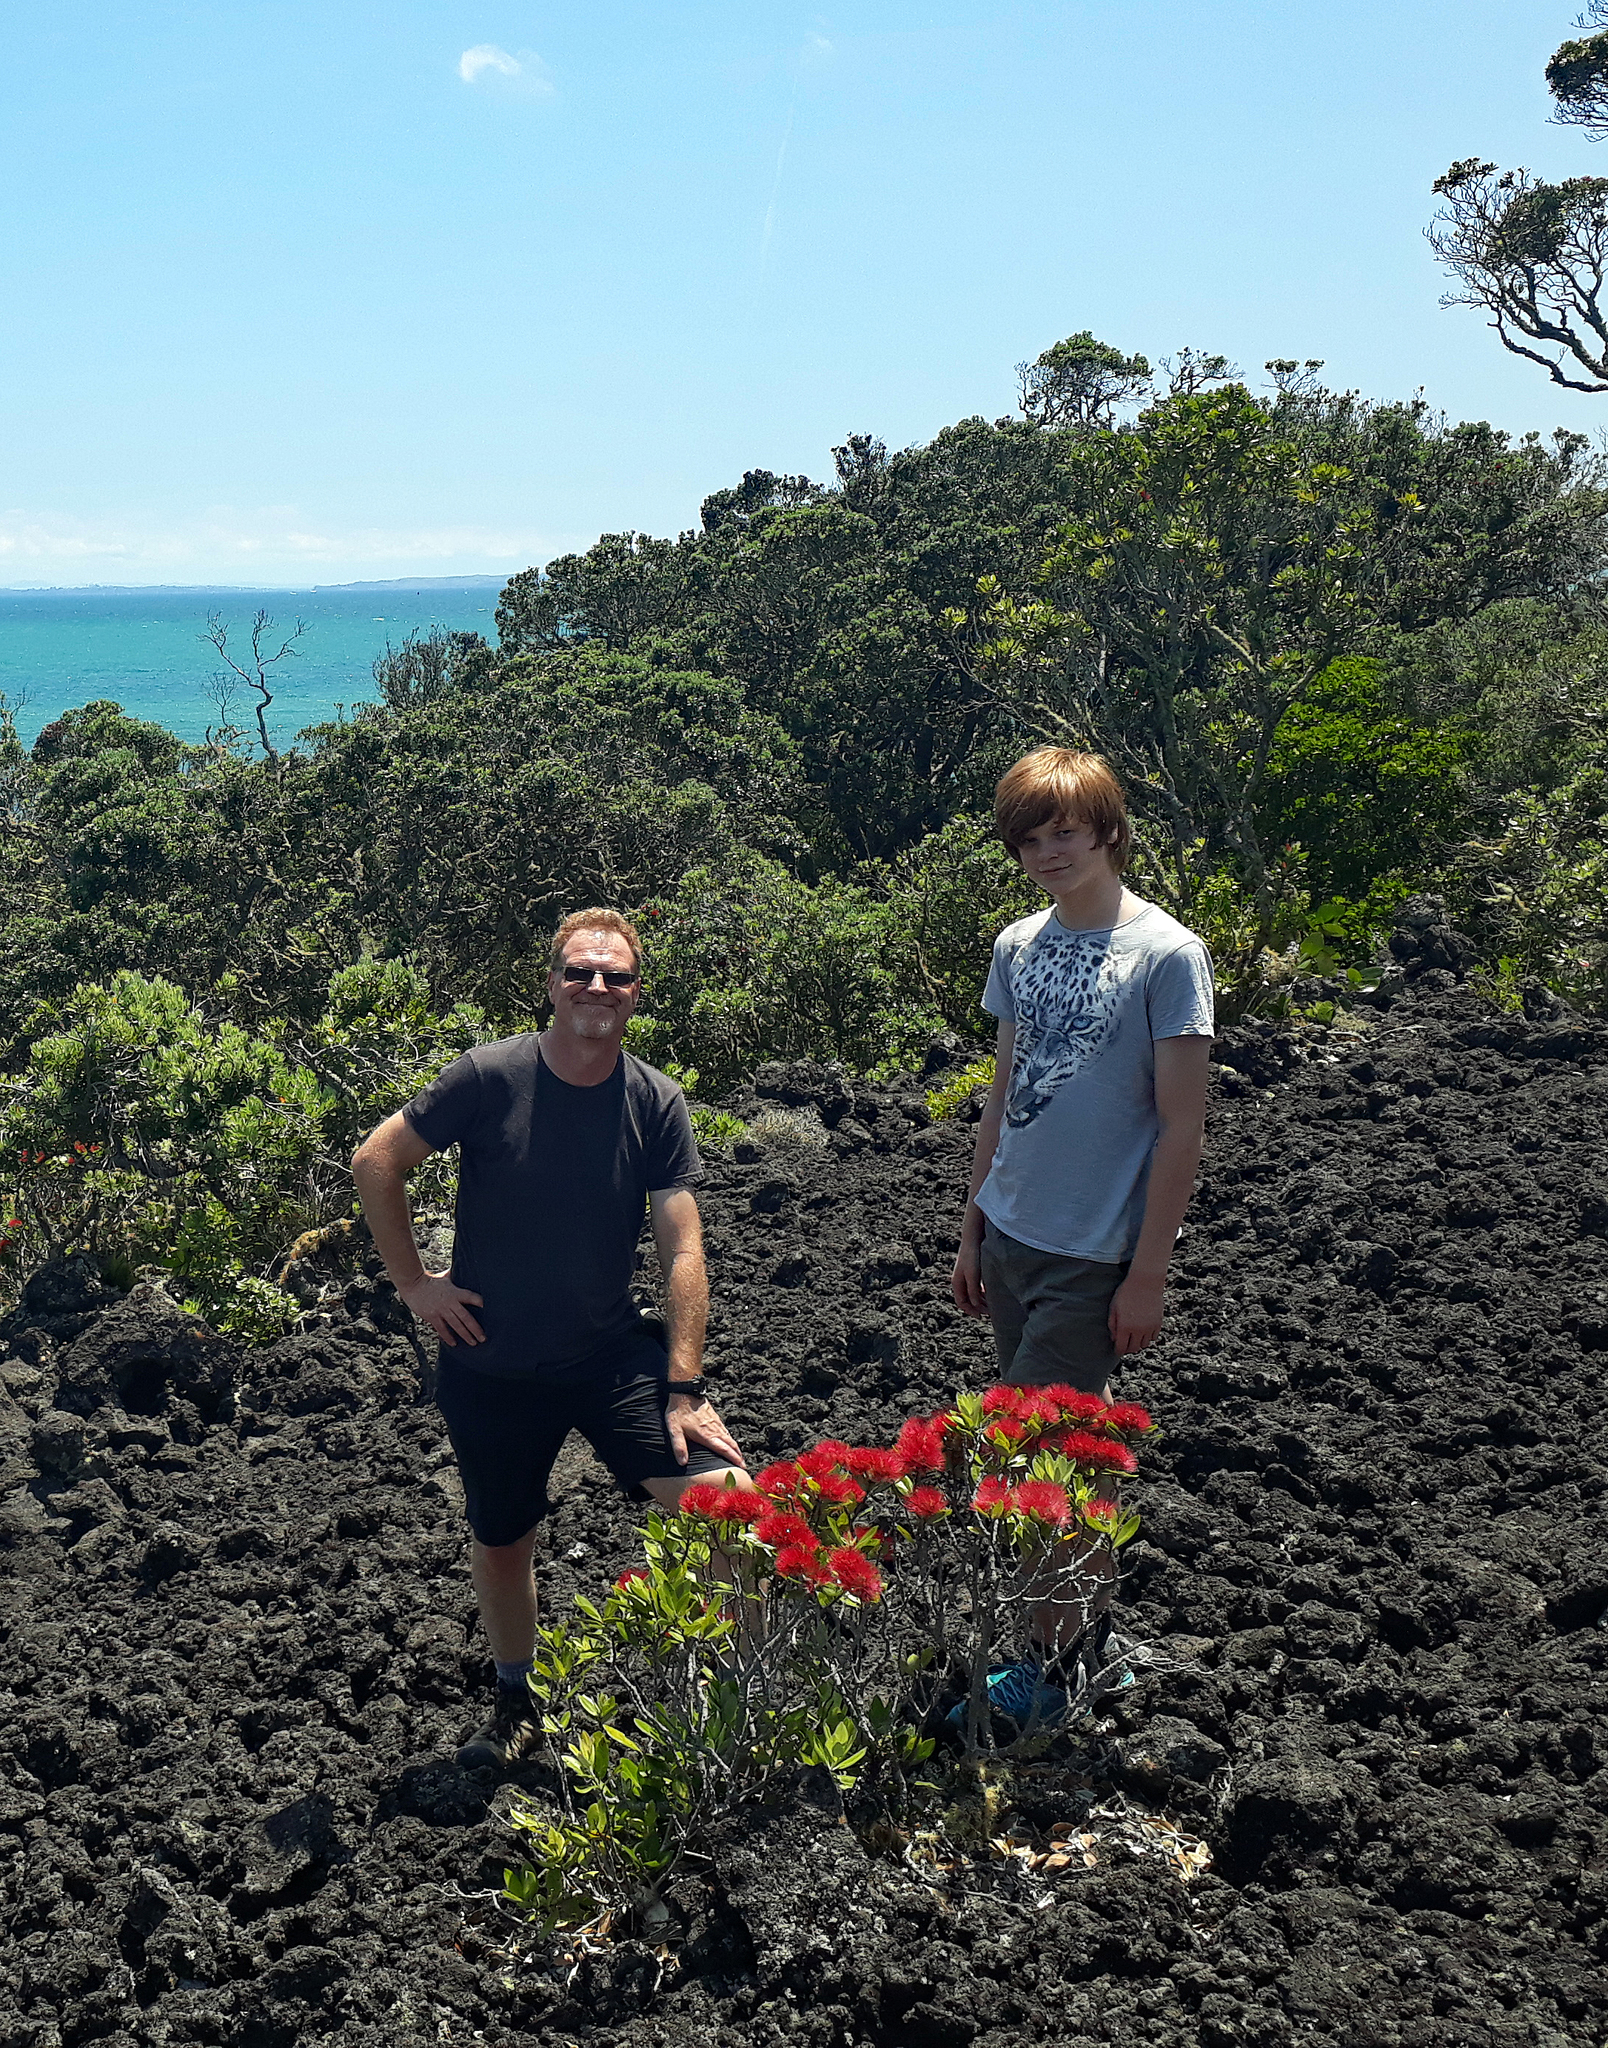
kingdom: Plantae
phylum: Tracheophyta
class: Magnoliopsida
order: Myrtales
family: Myrtaceae
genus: Metrosideros
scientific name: Metrosideros excelsa
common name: New zealand christmastree
